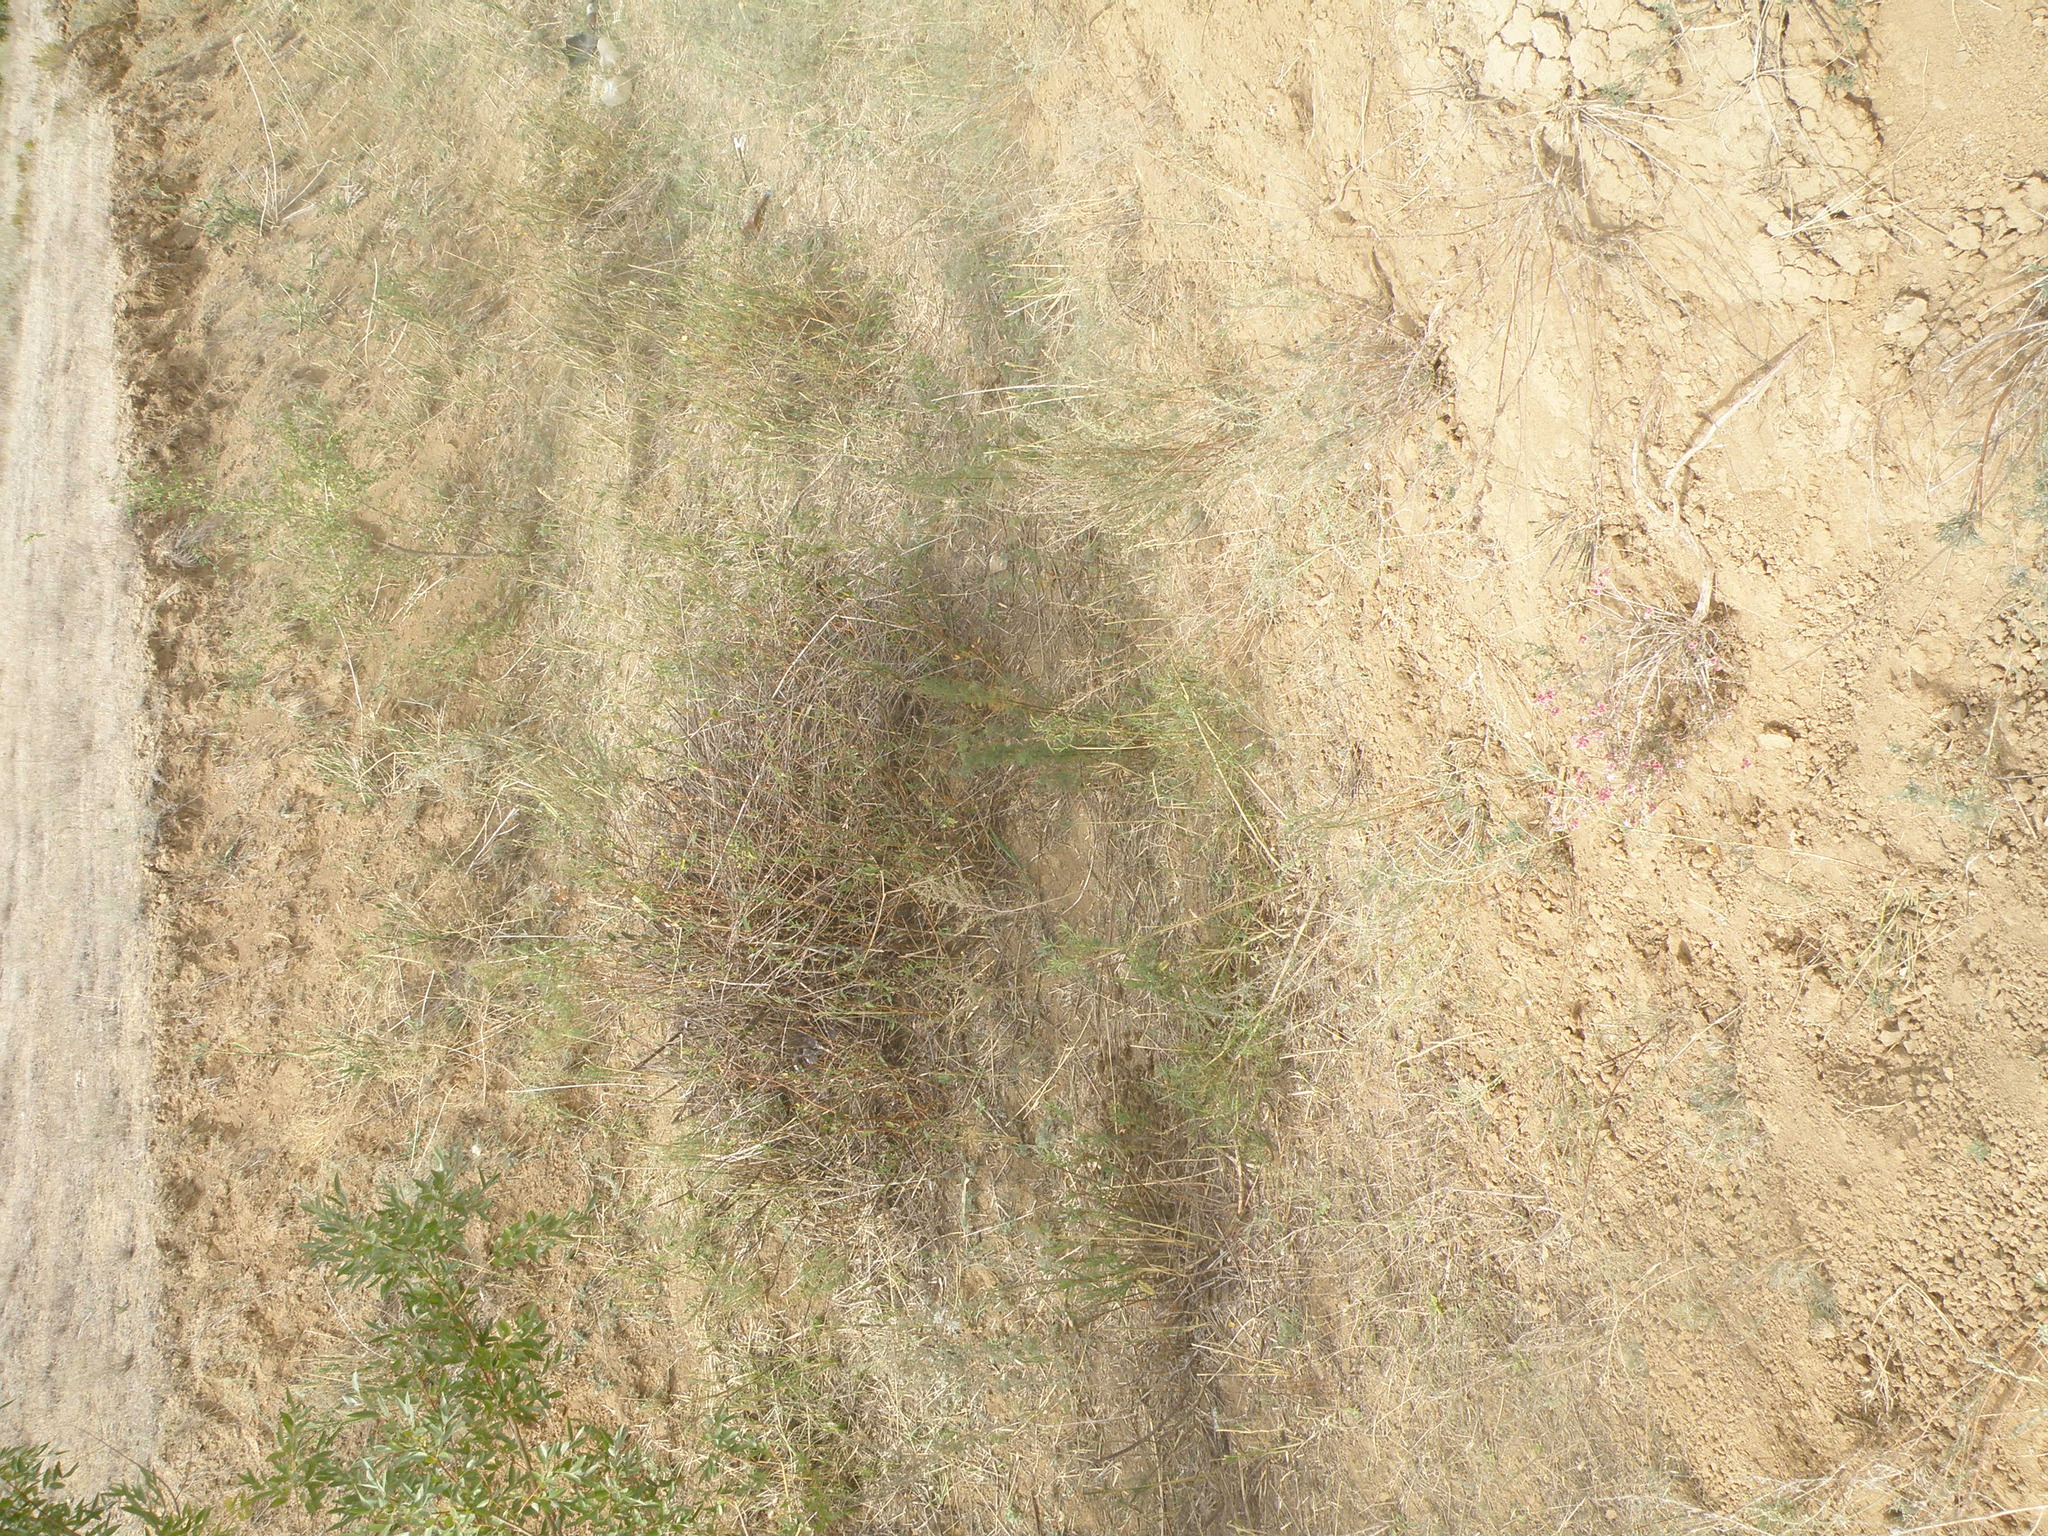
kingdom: Plantae
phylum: Tracheophyta
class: Magnoliopsida
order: Caryophyllales
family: Polygonaceae
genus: Atraphaxis
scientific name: Atraphaxis decipiens
